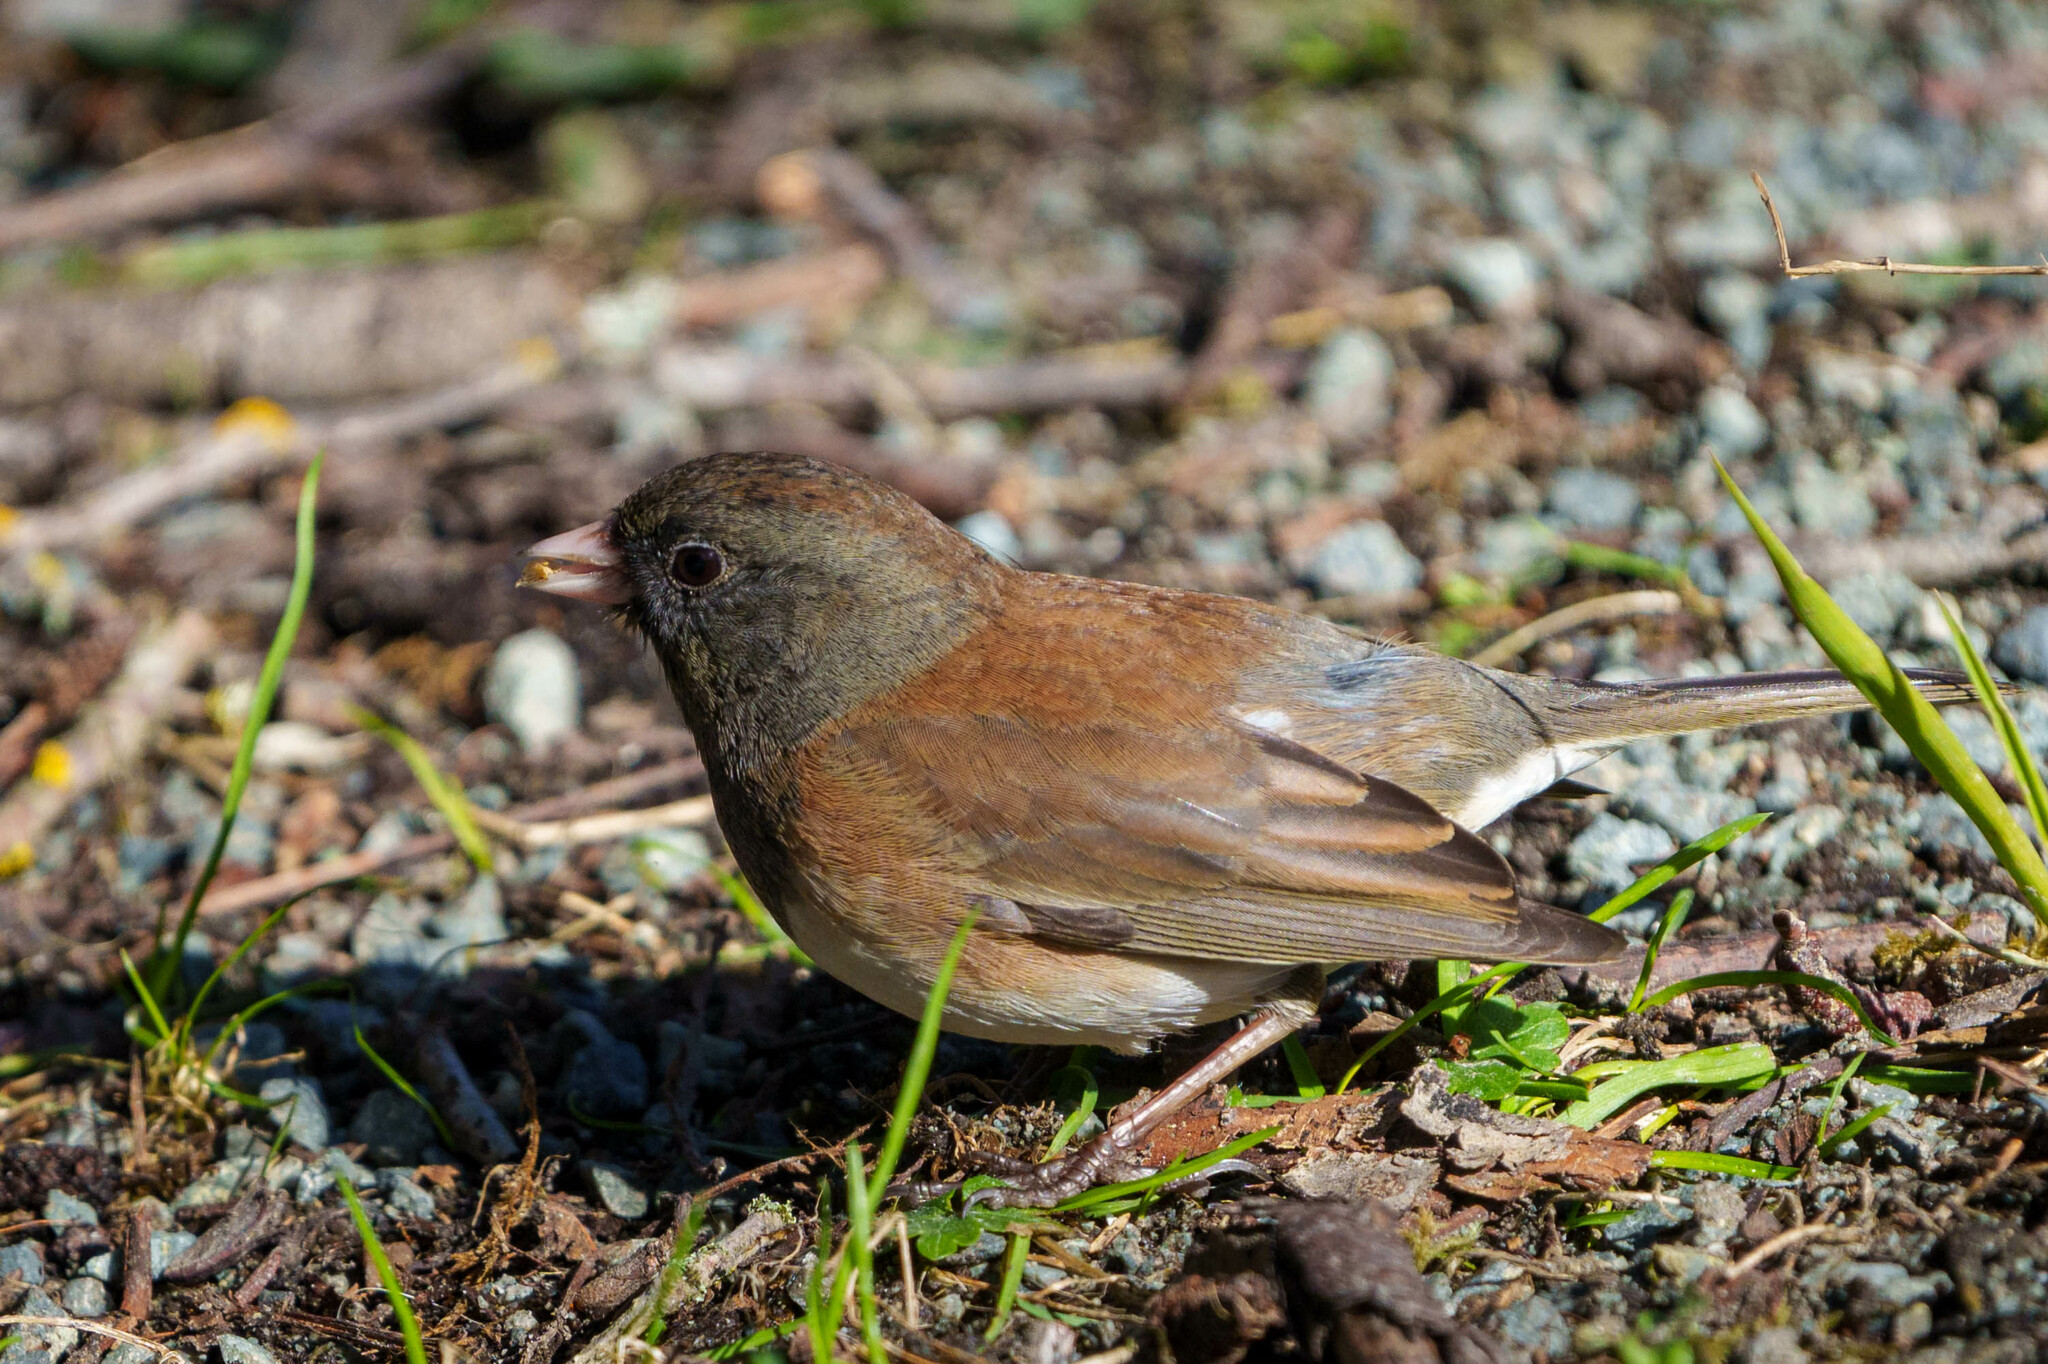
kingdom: Animalia
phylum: Chordata
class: Aves
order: Passeriformes
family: Passerellidae
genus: Junco
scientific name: Junco hyemalis
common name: Dark-eyed junco
